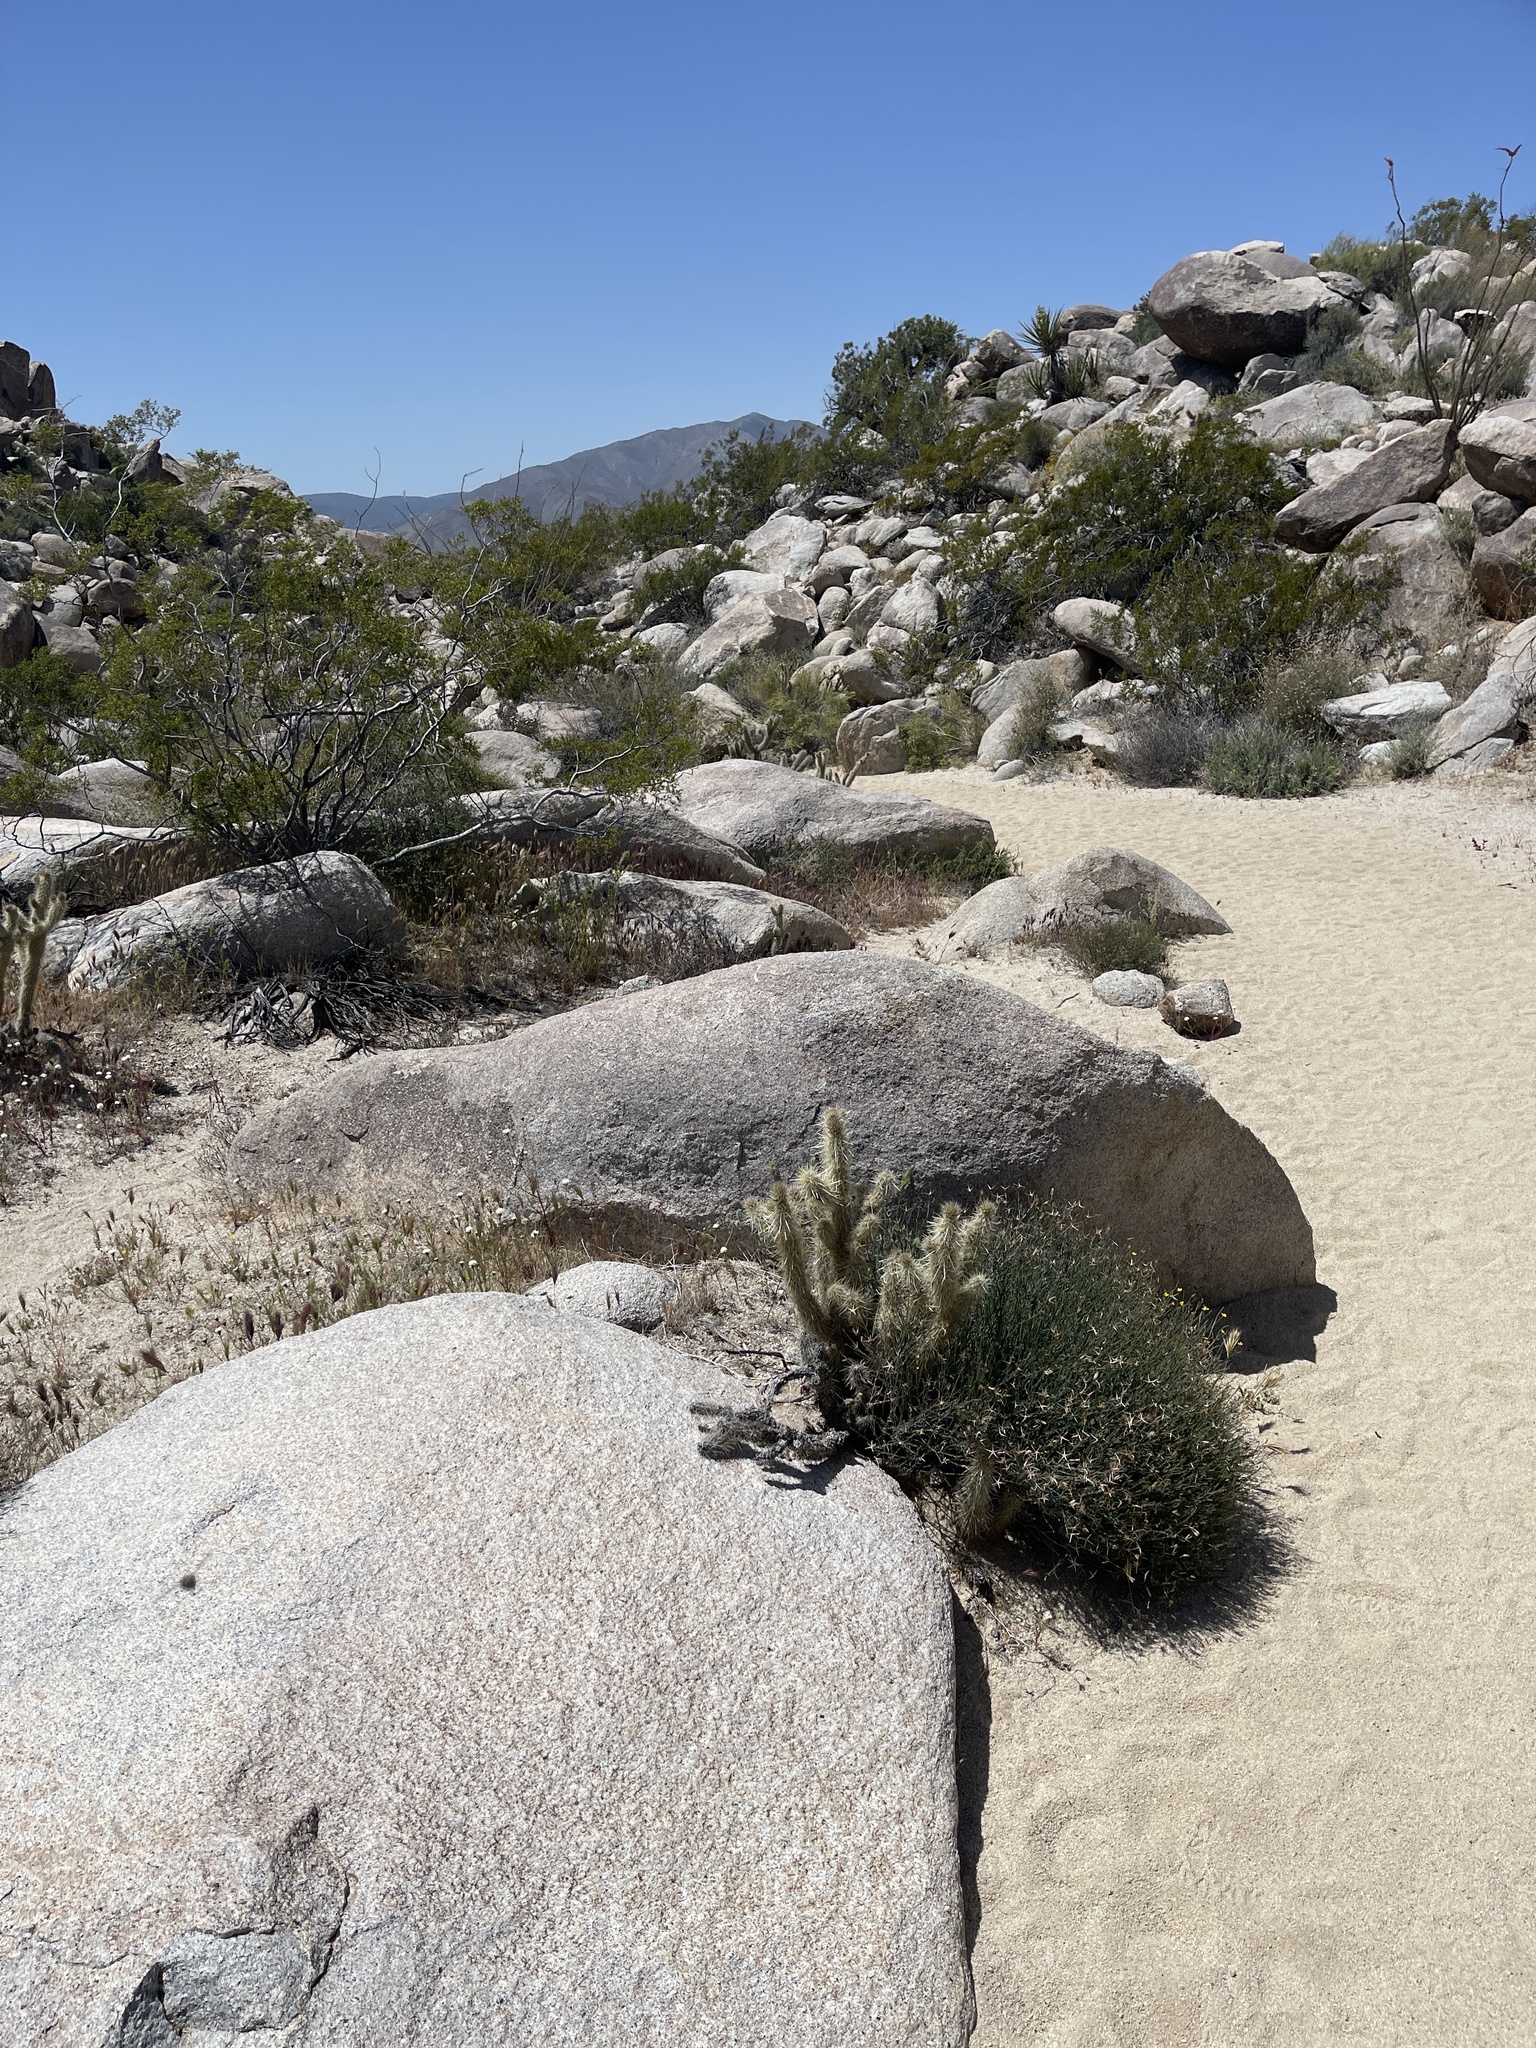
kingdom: Plantae
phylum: Tracheophyta
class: Magnoliopsida
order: Caryophyllales
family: Cactaceae
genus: Cylindropuntia
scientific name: Cylindropuntia ganderi
